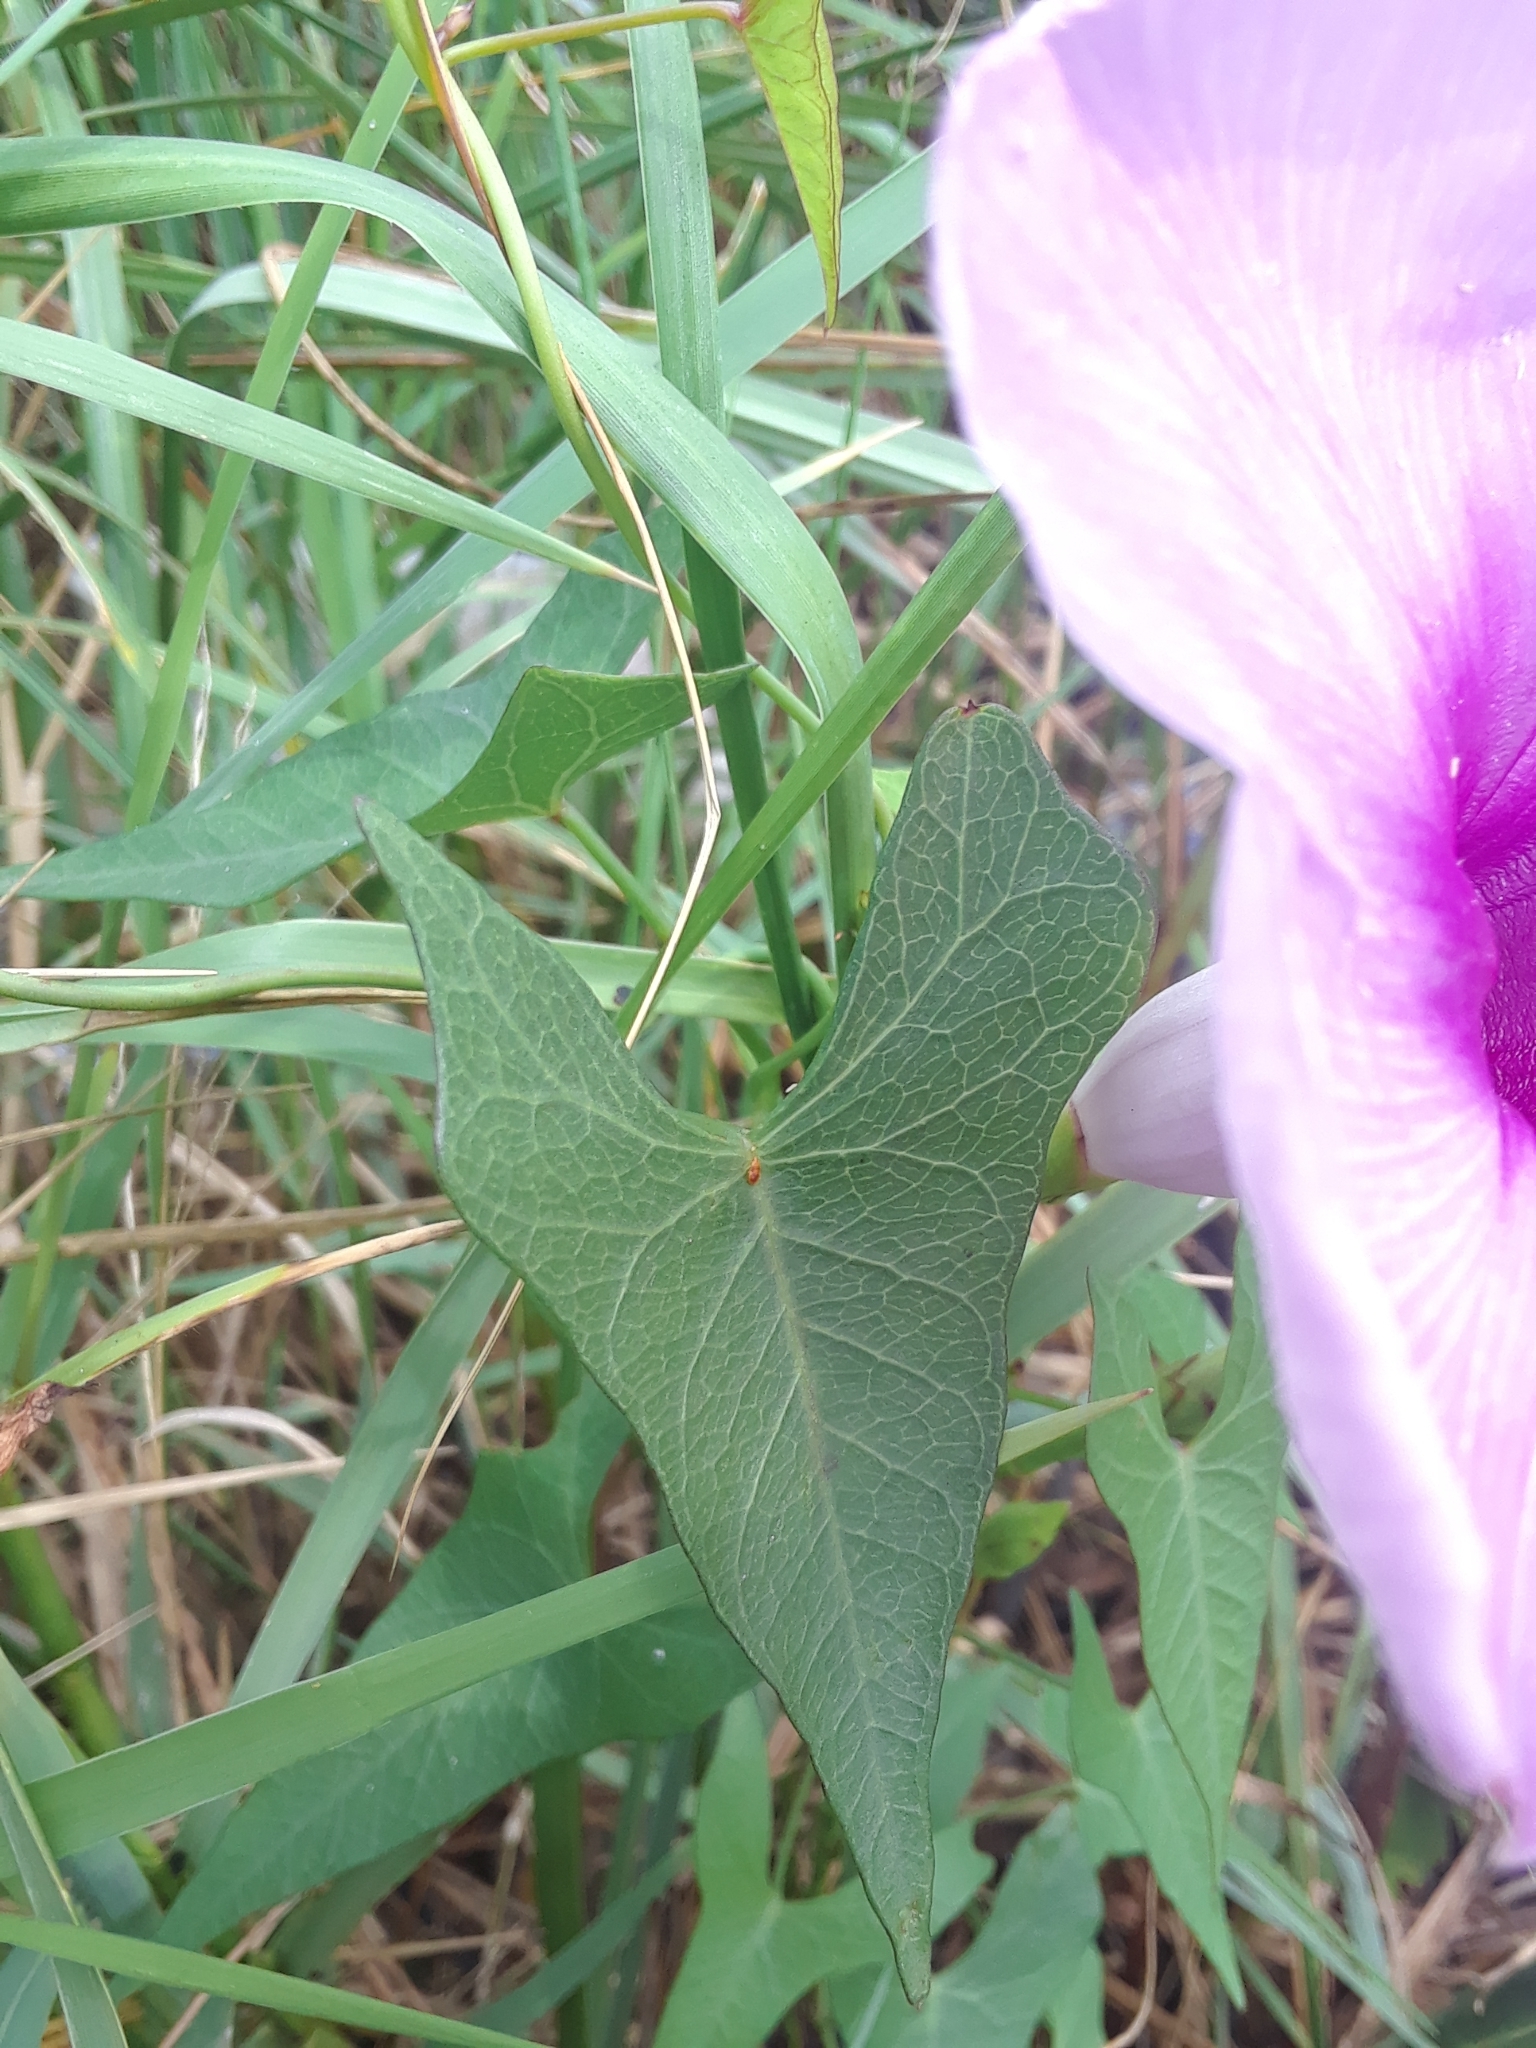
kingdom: Plantae
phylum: Tracheophyta
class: Magnoliopsida
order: Solanales
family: Convolvulaceae
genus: Ipomoea
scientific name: Ipomoea sagittata
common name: Saltmarsh morning glory
